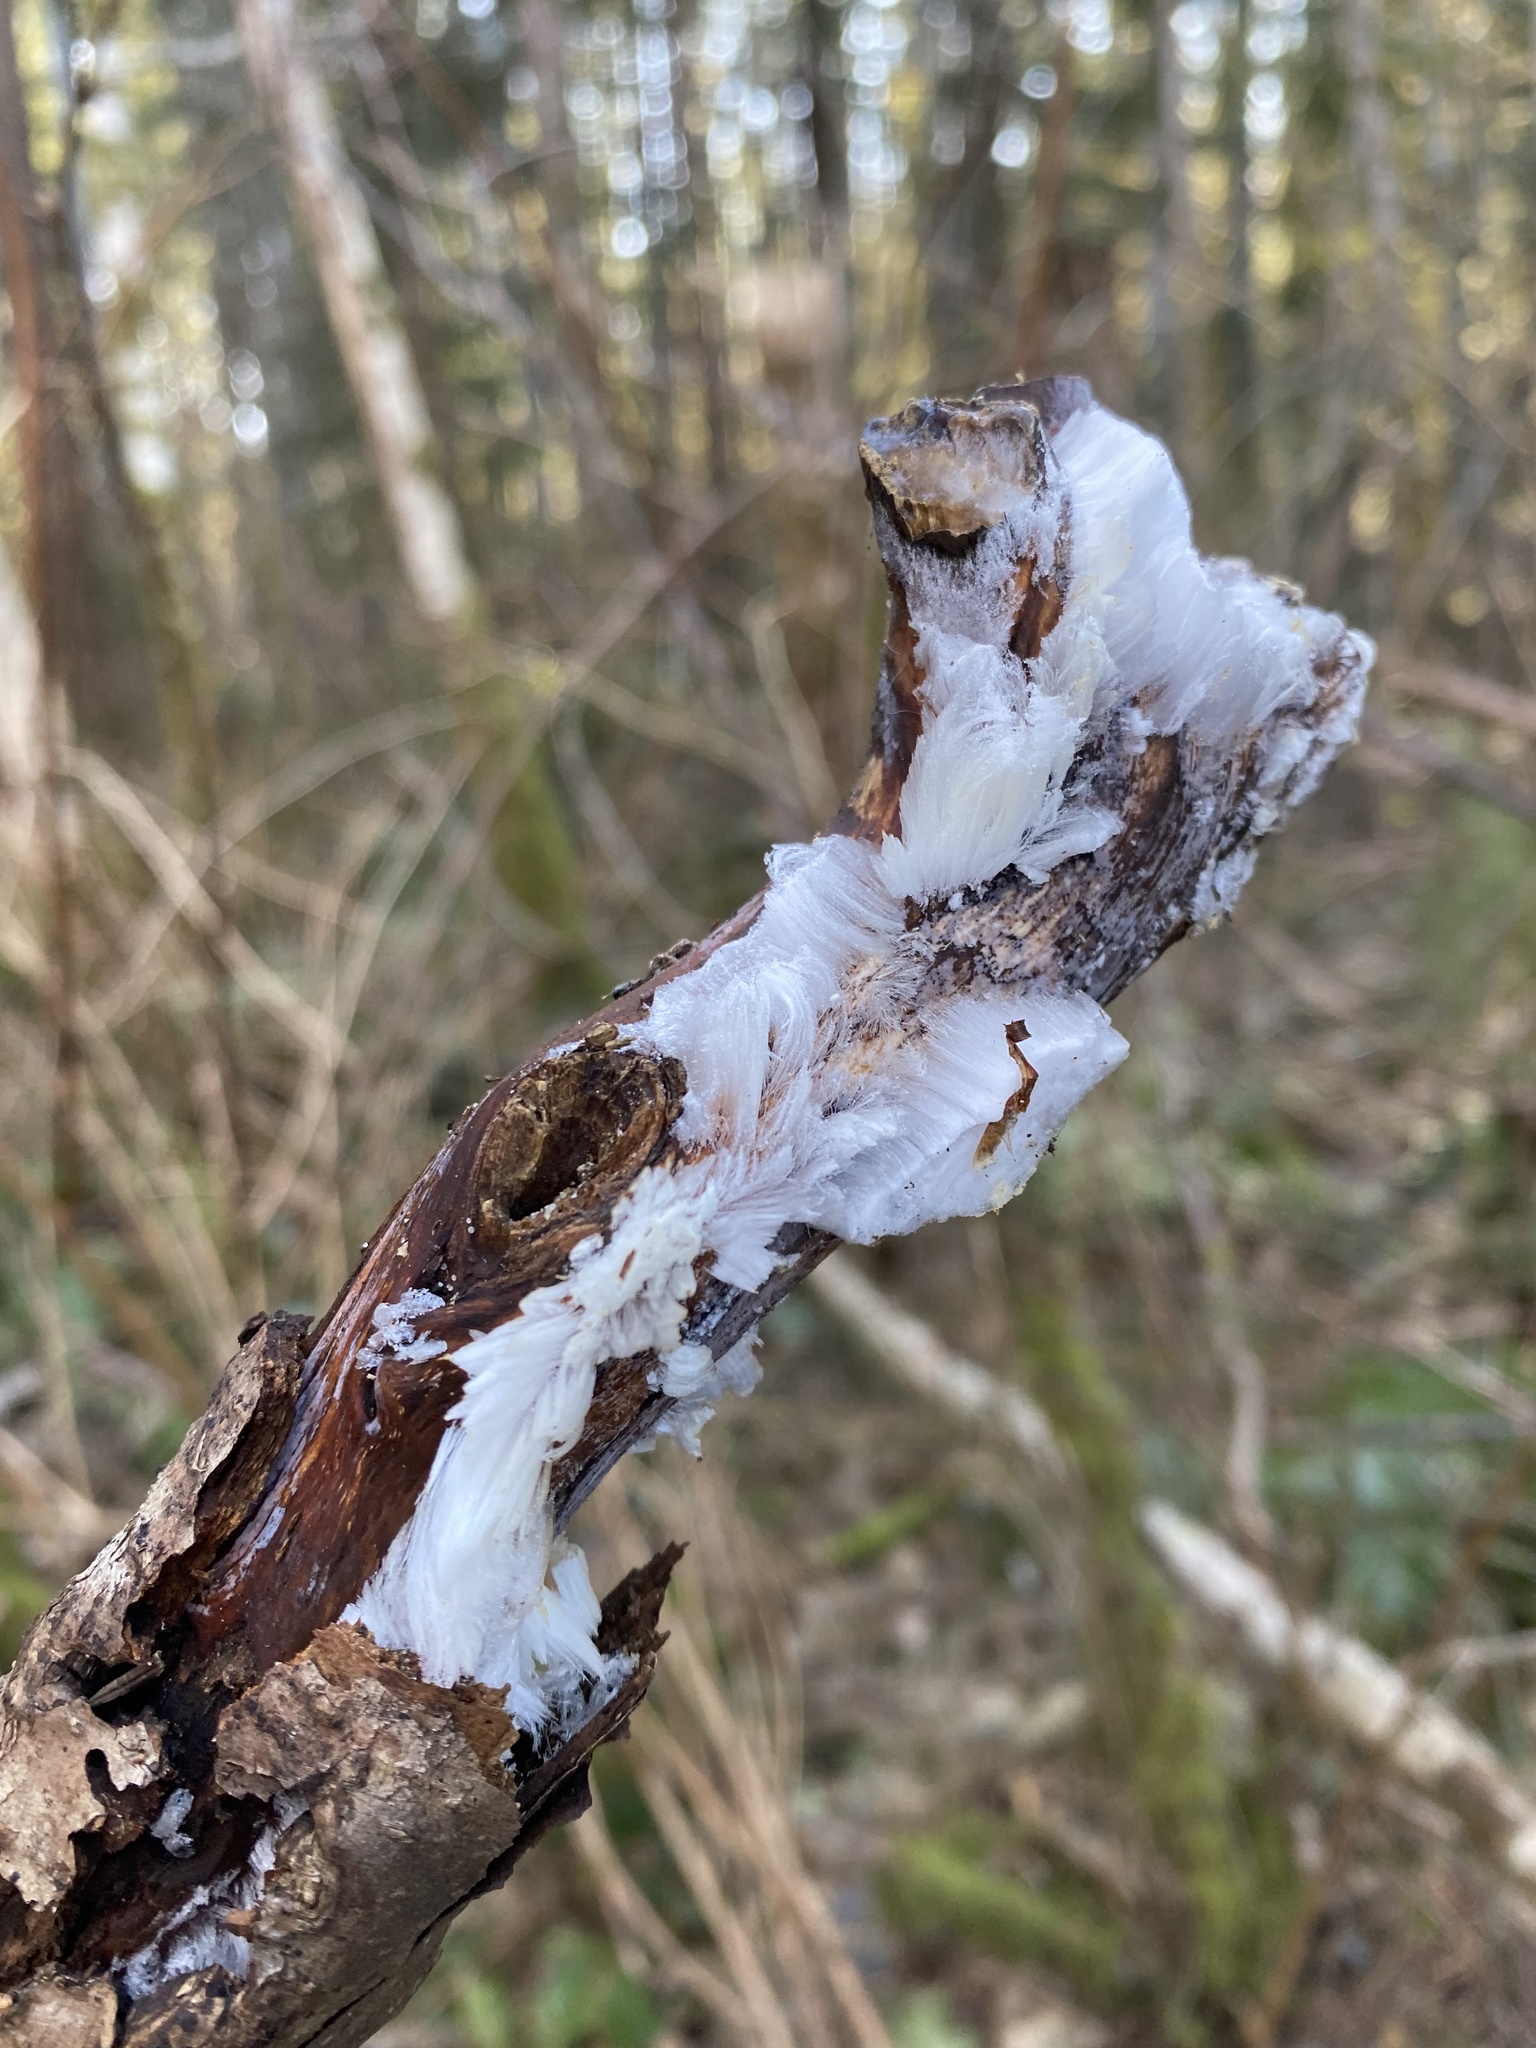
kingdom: Fungi
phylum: Basidiomycota
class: Agaricomycetes
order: Auriculariales
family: Auriculariaceae
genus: Exidiopsis
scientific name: Exidiopsis effusa
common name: Hair ice crust
